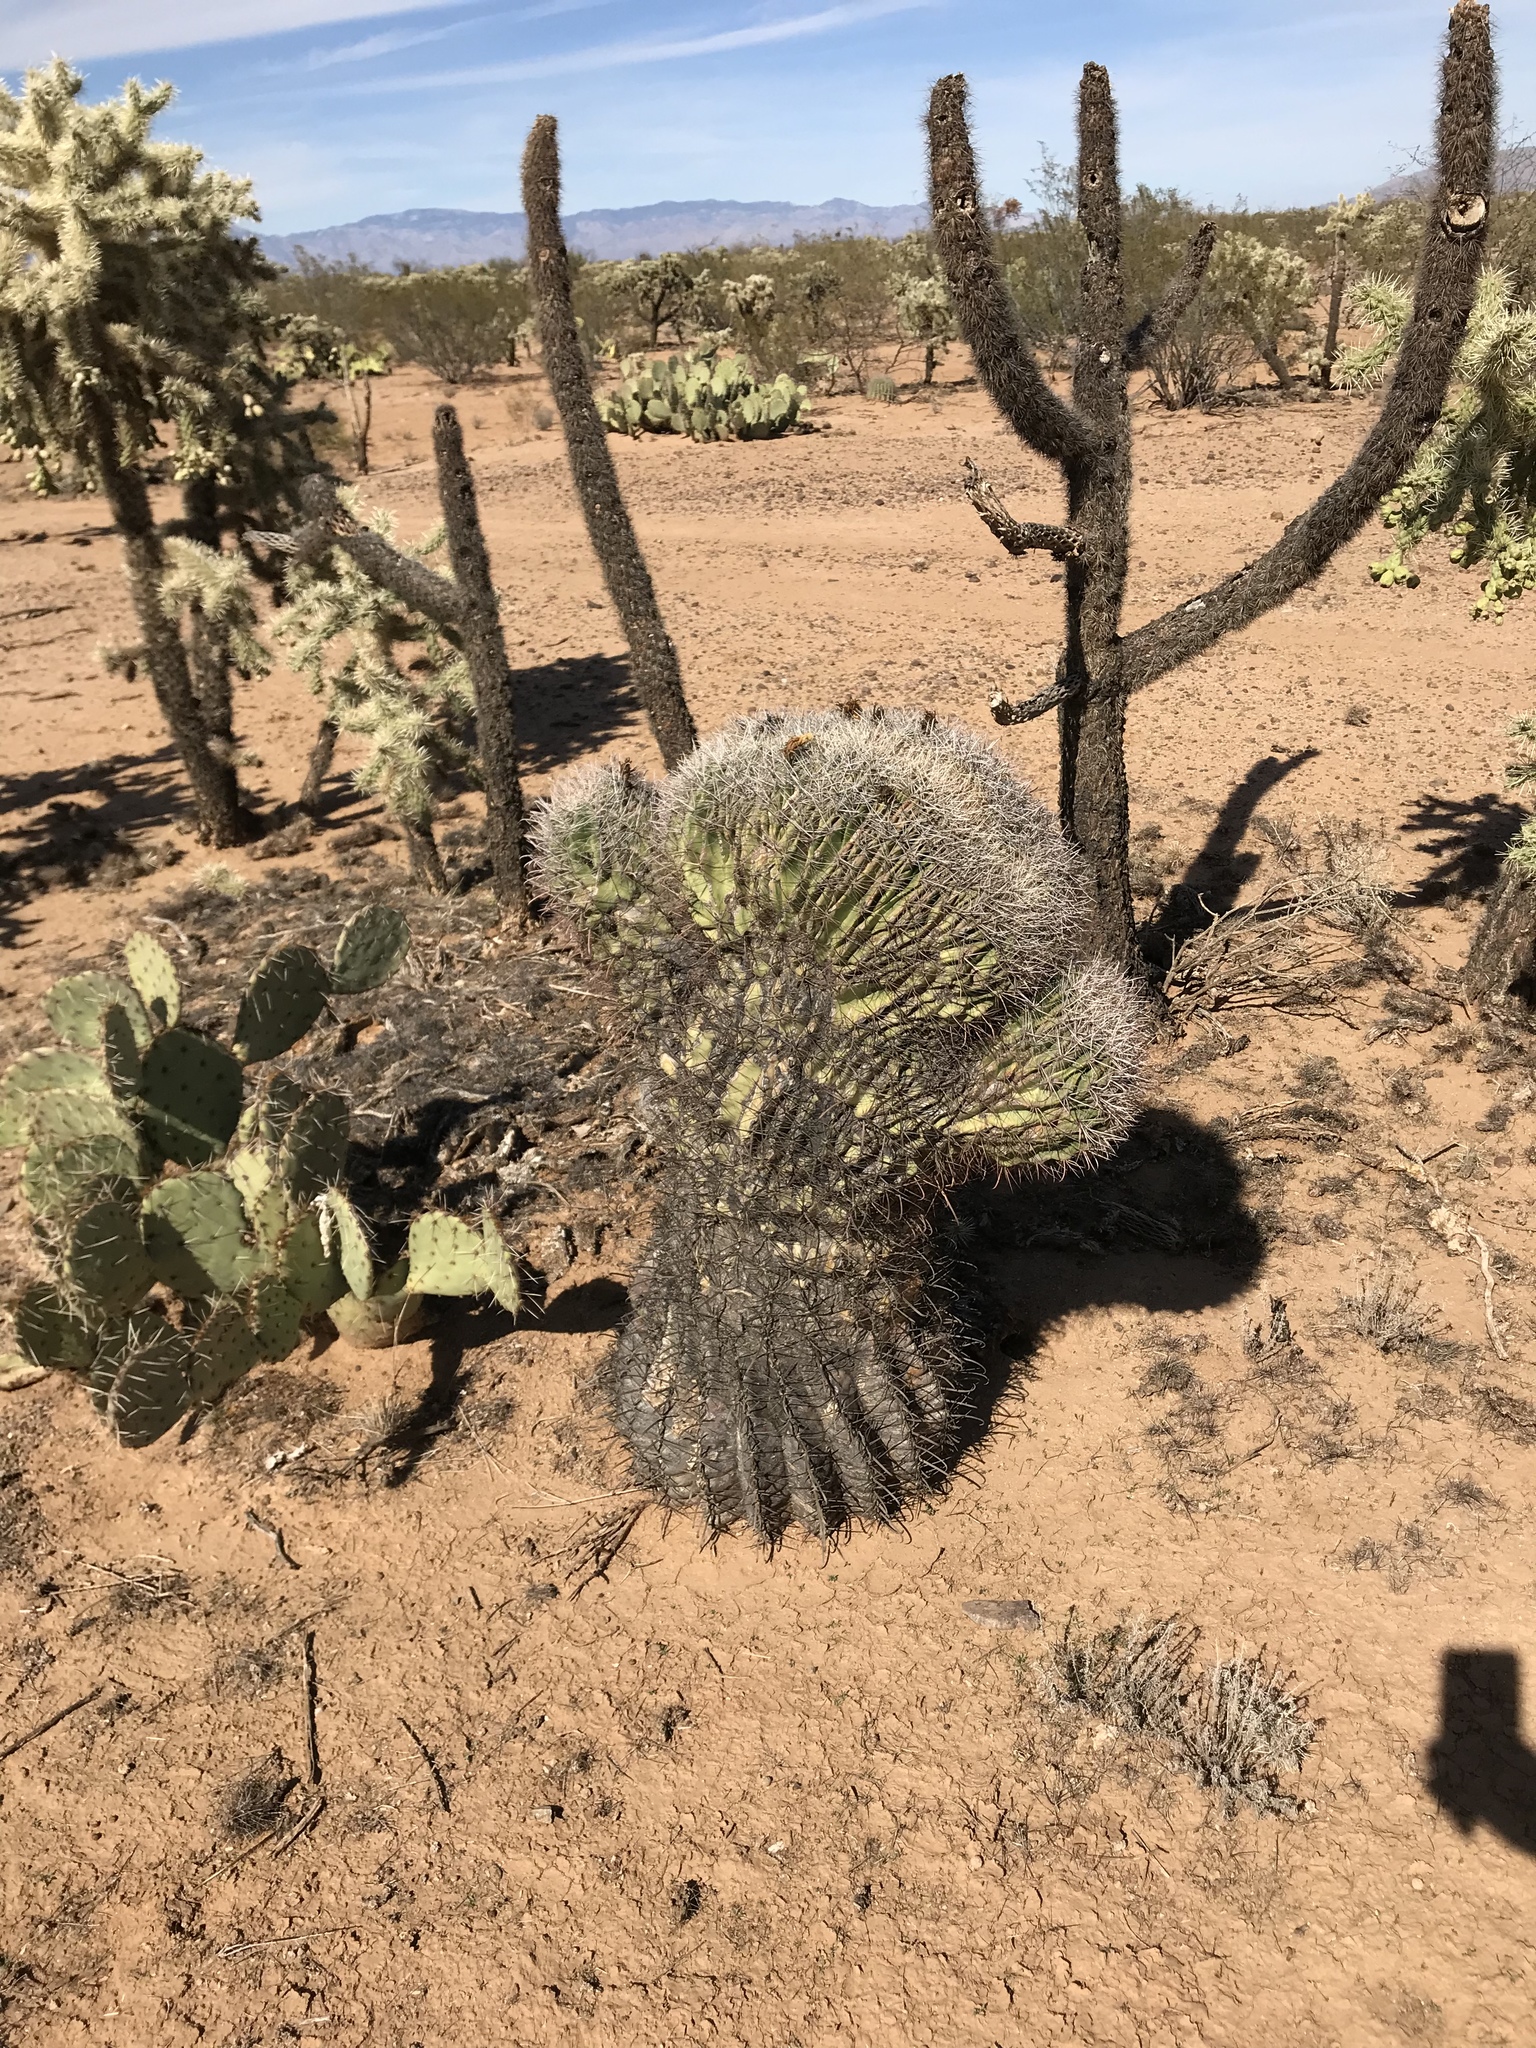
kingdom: Plantae
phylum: Tracheophyta
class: Magnoliopsida
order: Caryophyllales
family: Cactaceae
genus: Ferocactus
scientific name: Ferocactus wislizeni
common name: Candy barrel cactus
